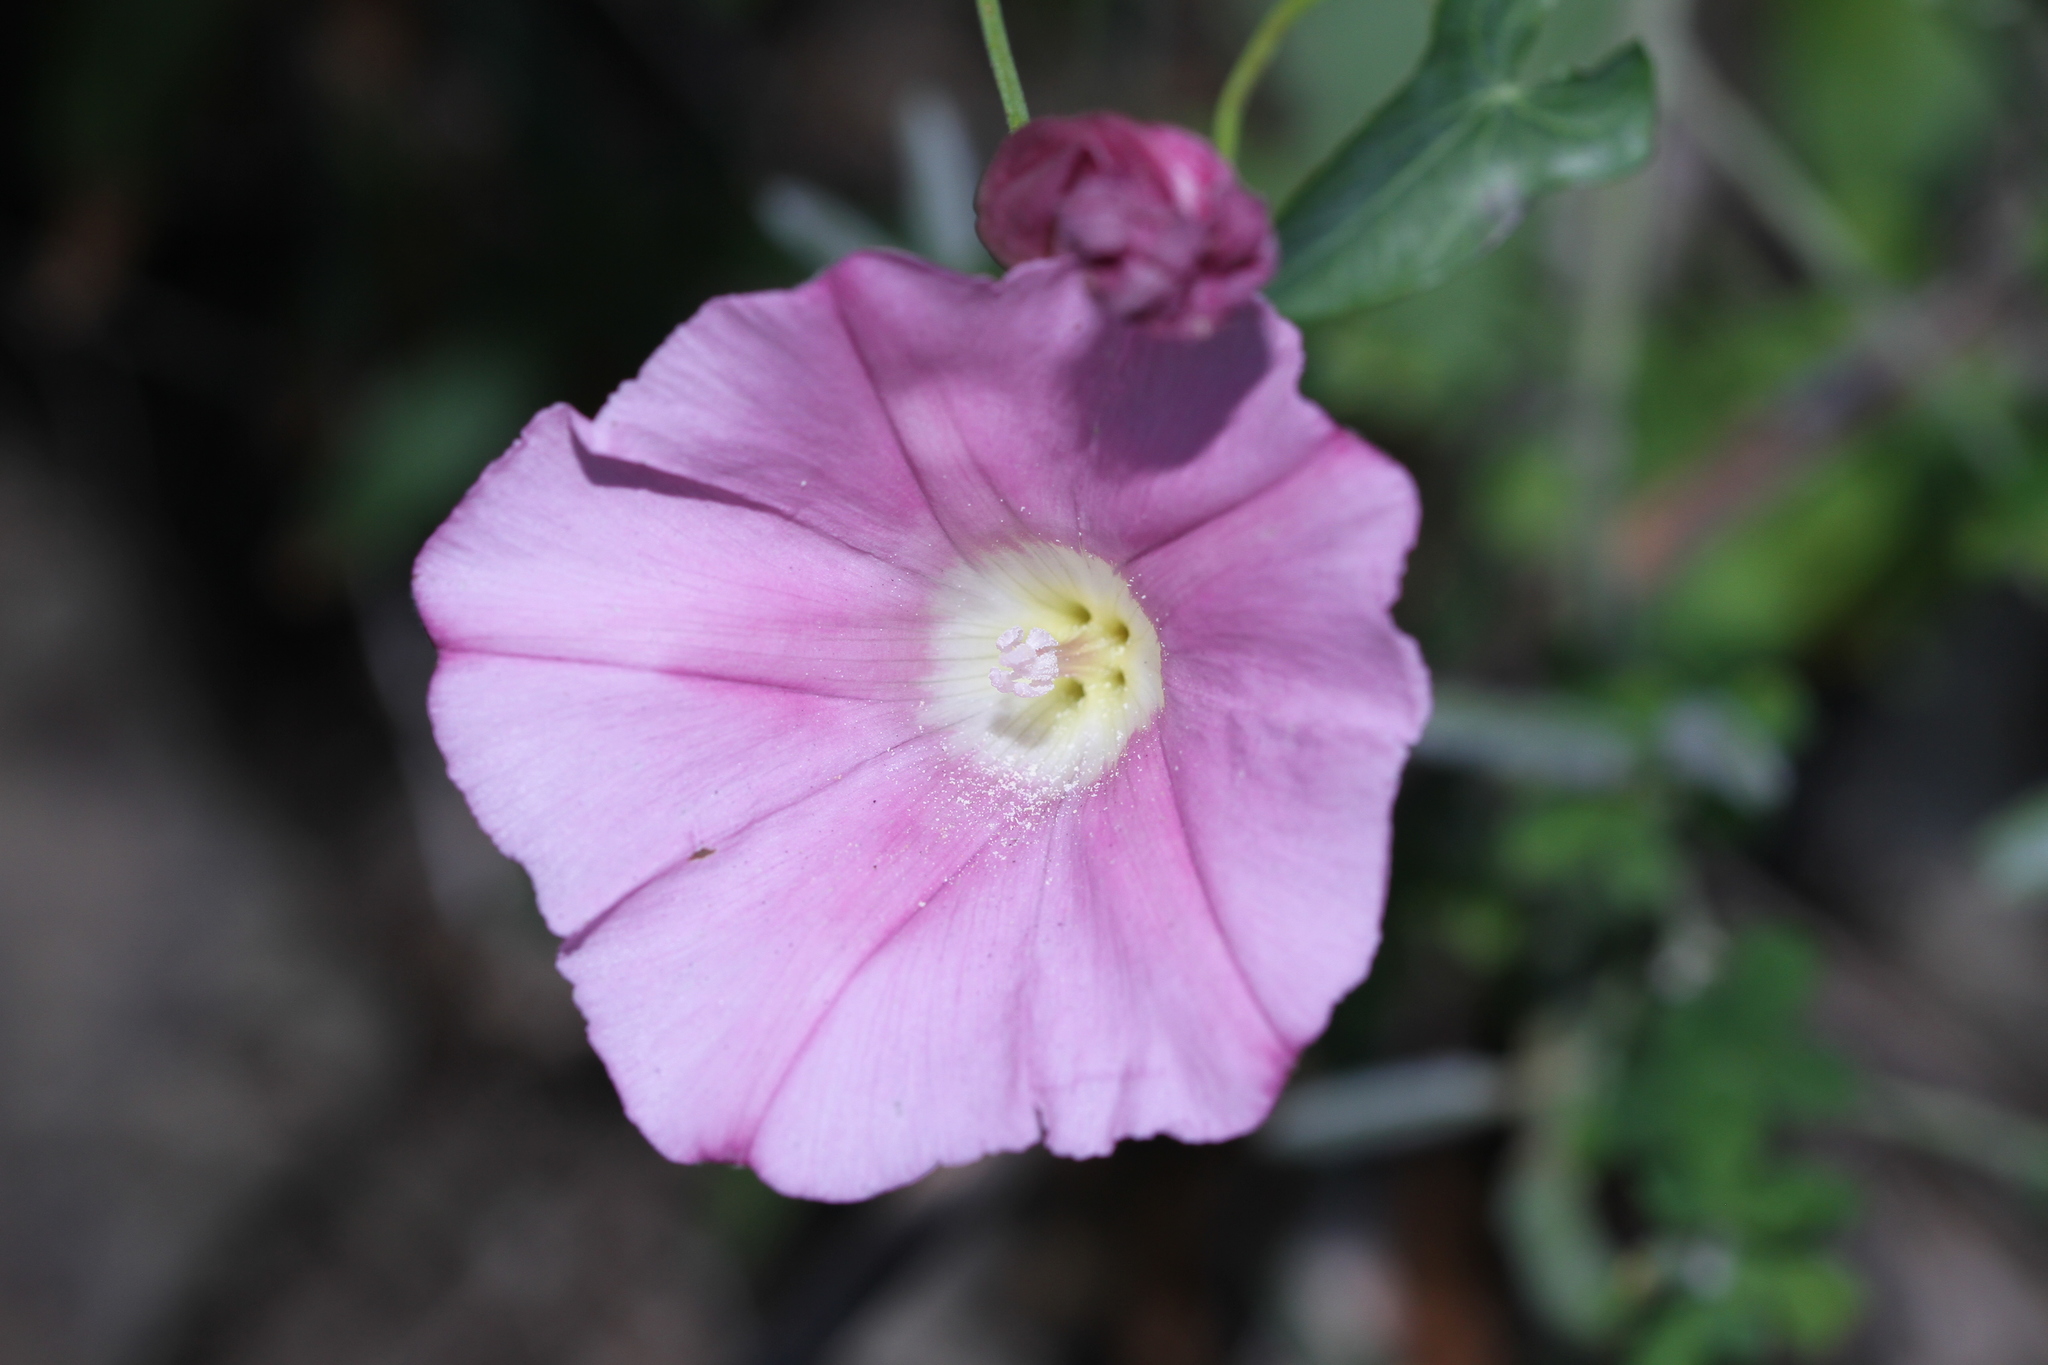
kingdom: Plantae
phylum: Tracheophyta
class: Magnoliopsida
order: Solanales
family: Convolvulaceae
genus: Calystegia
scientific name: Calystegia purpurata
